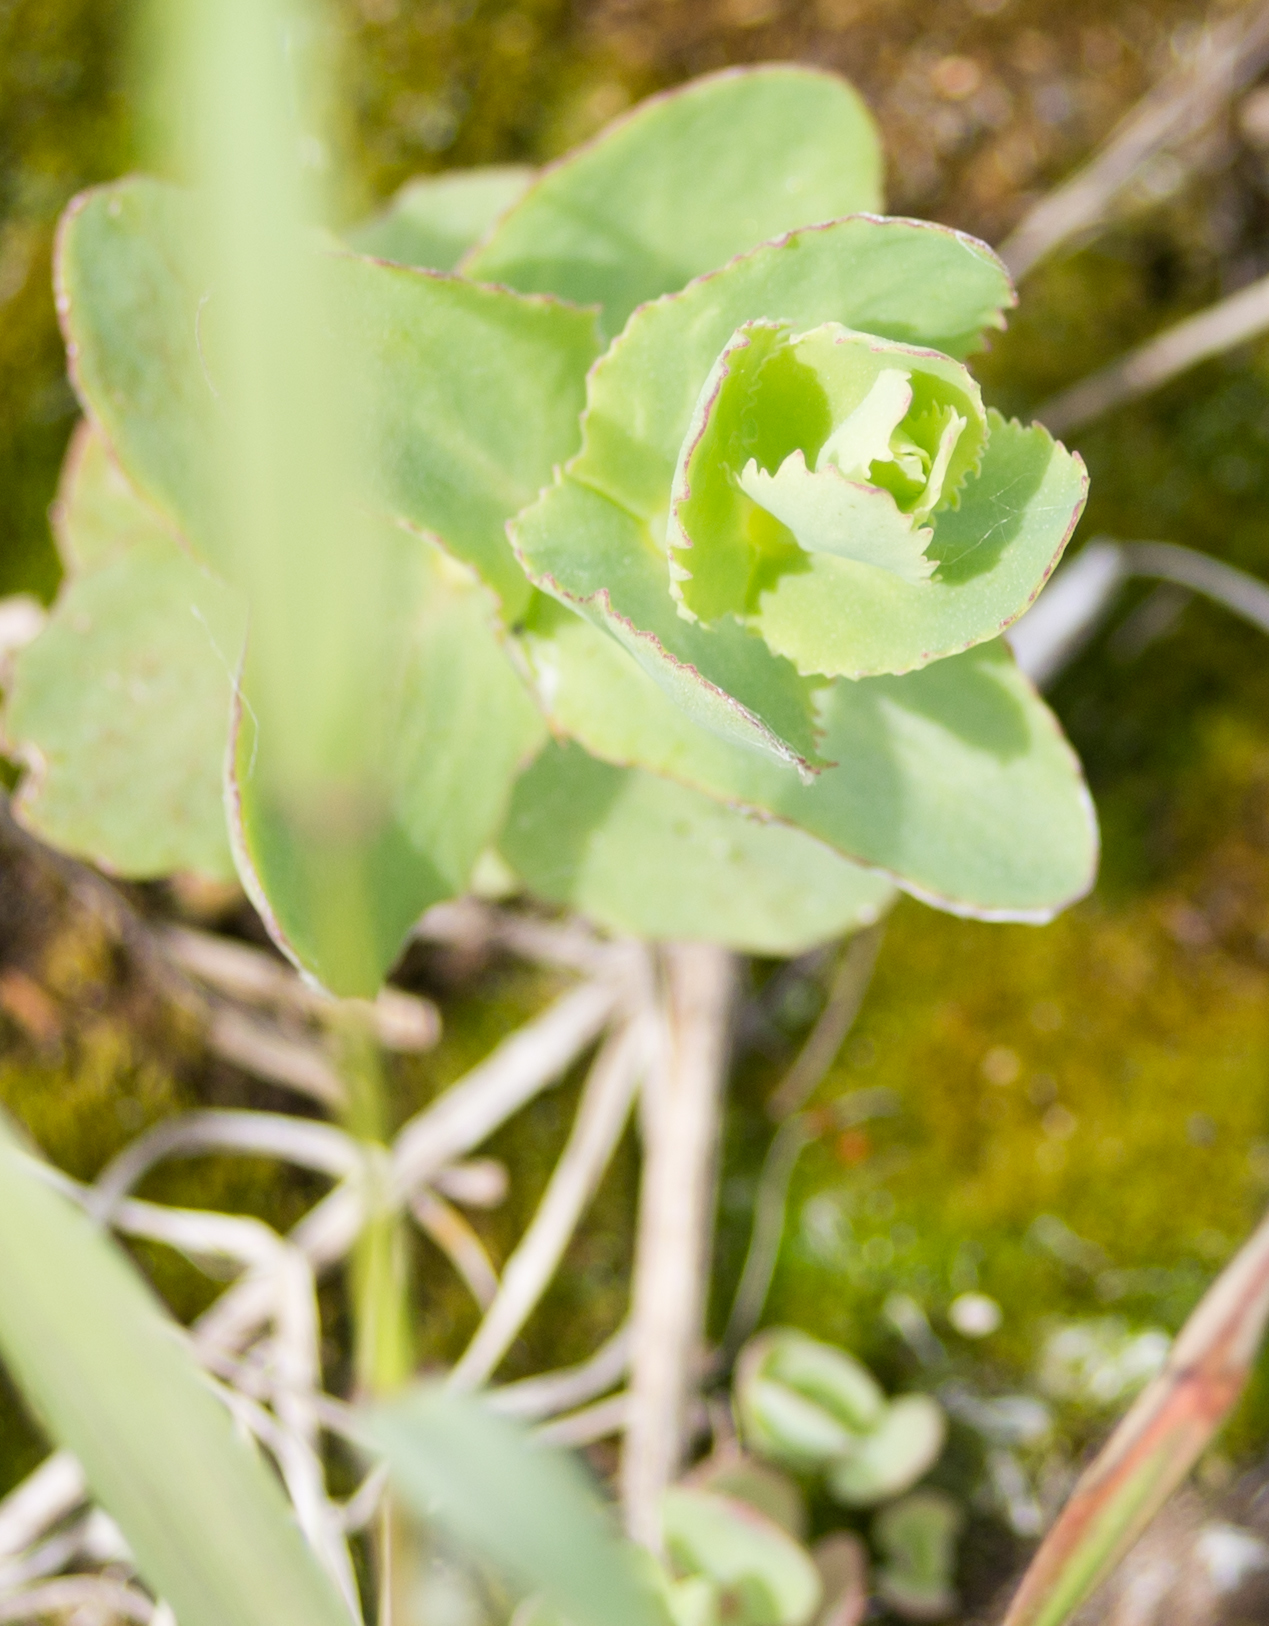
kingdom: Plantae
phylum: Tracheophyta
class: Magnoliopsida
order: Saxifragales
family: Crassulaceae
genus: Hylotelephium
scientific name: Hylotelephium maximum
